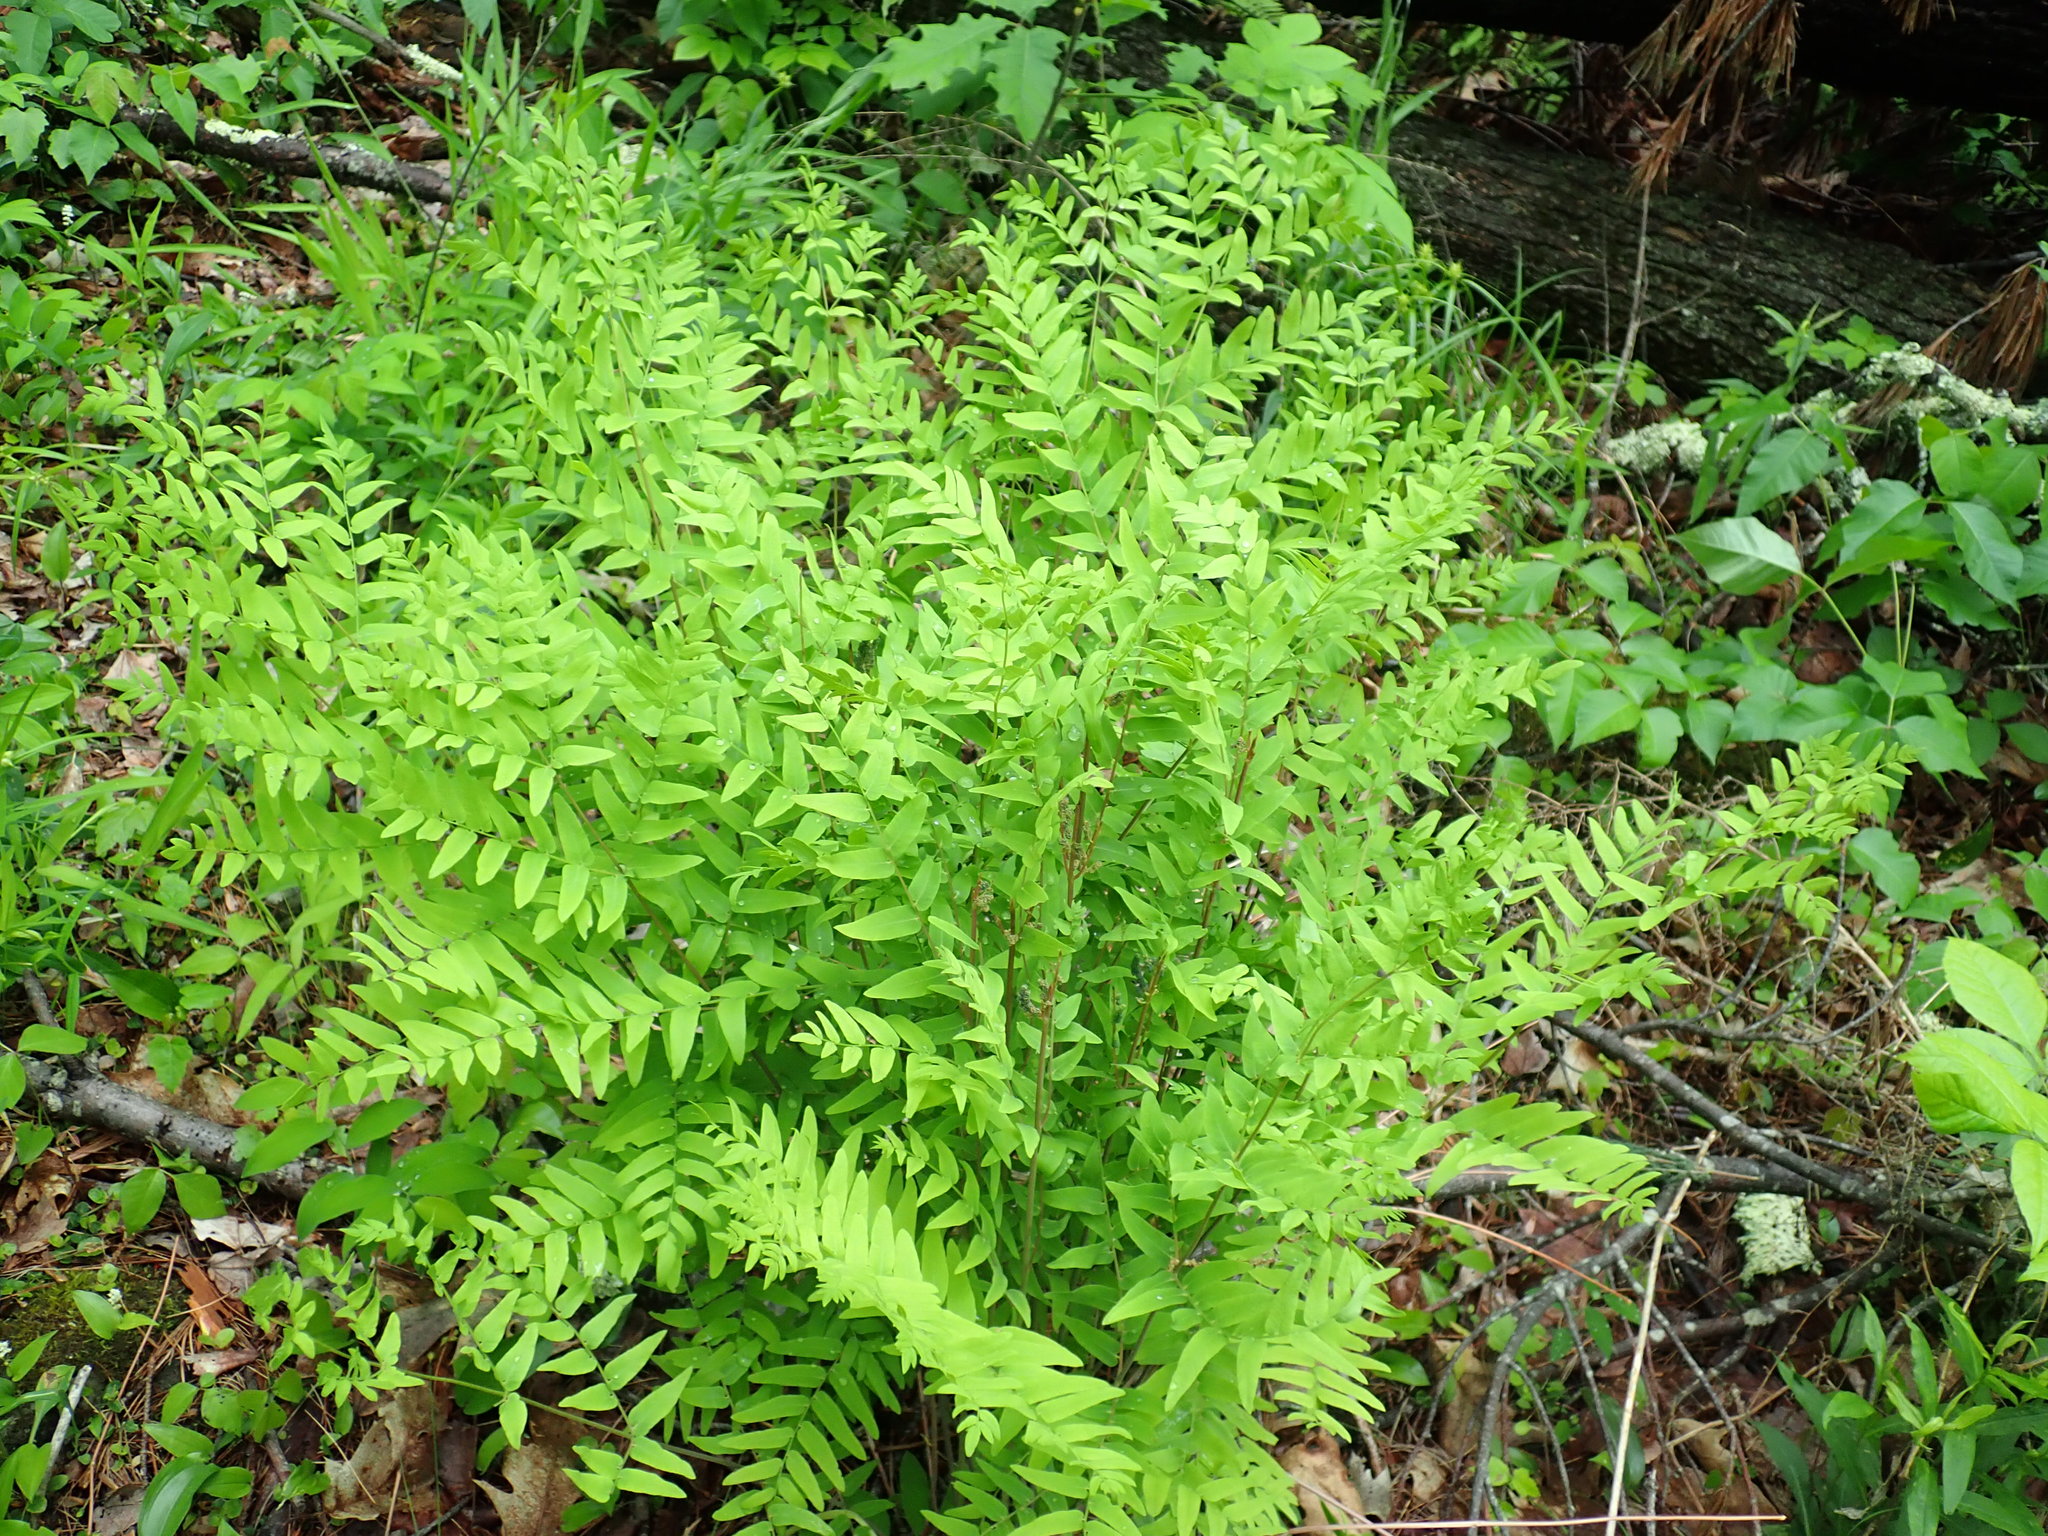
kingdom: Plantae
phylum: Tracheophyta
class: Polypodiopsida
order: Osmundales
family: Osmundaceae
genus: Osmunda
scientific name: Osmunda spectabilis
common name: American royal fern
